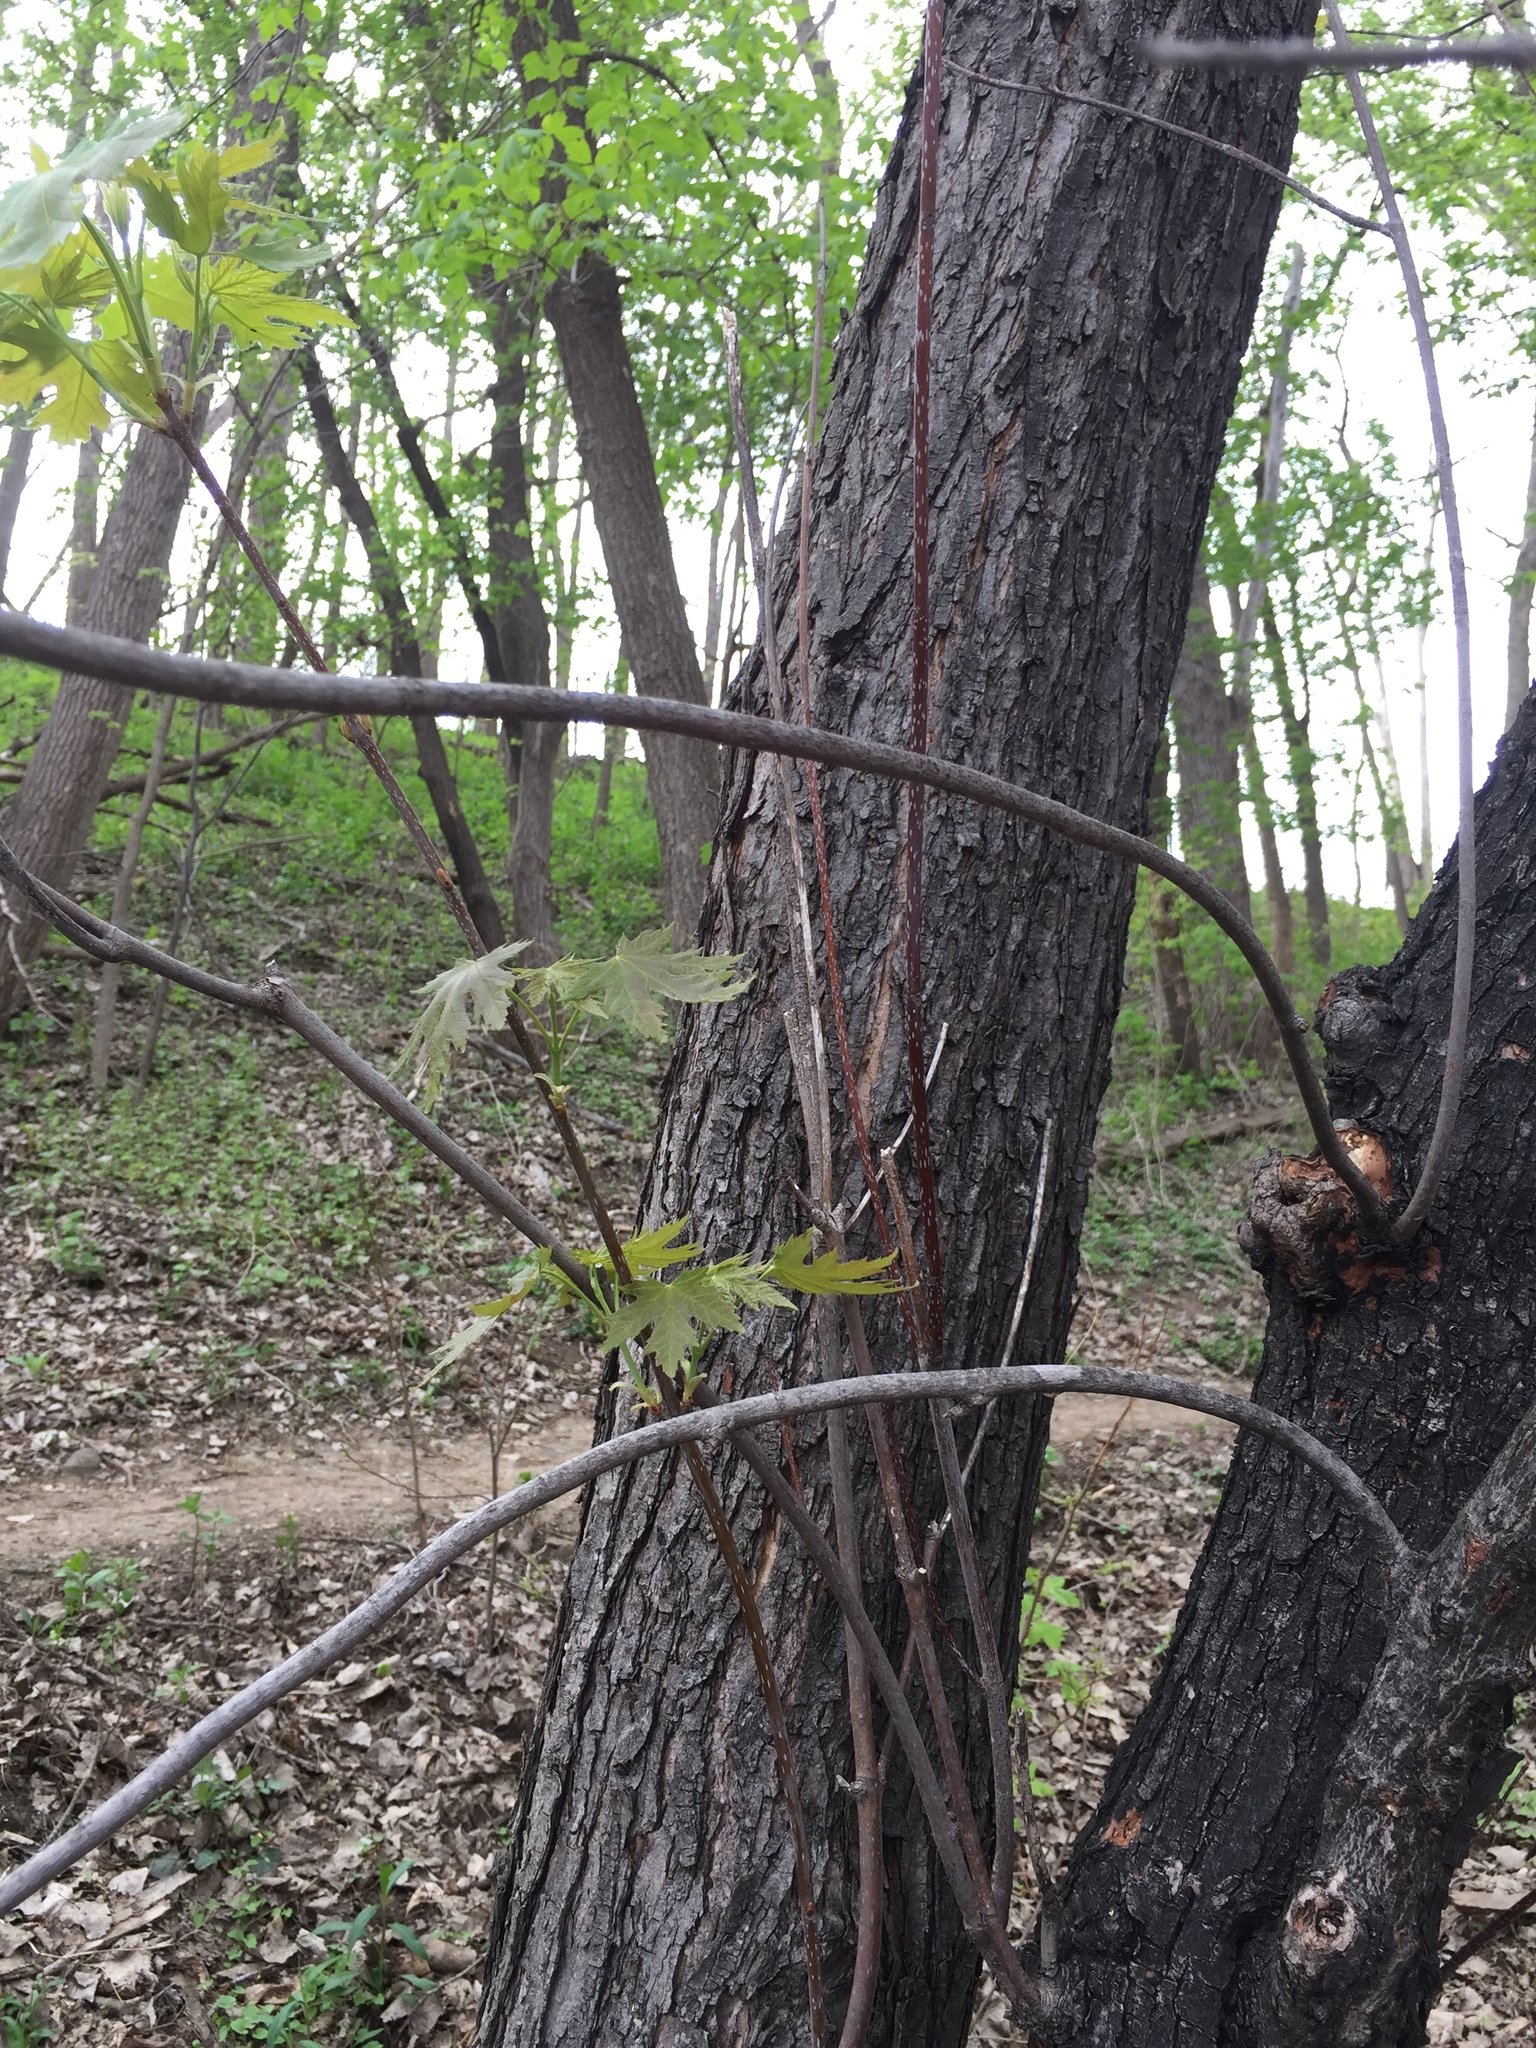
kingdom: Plantae
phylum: Tracheophyta
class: Magnoliopsida
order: Sapindales
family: Sapindaceae
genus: Acer
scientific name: Acer saccharinum
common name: Silver maple
